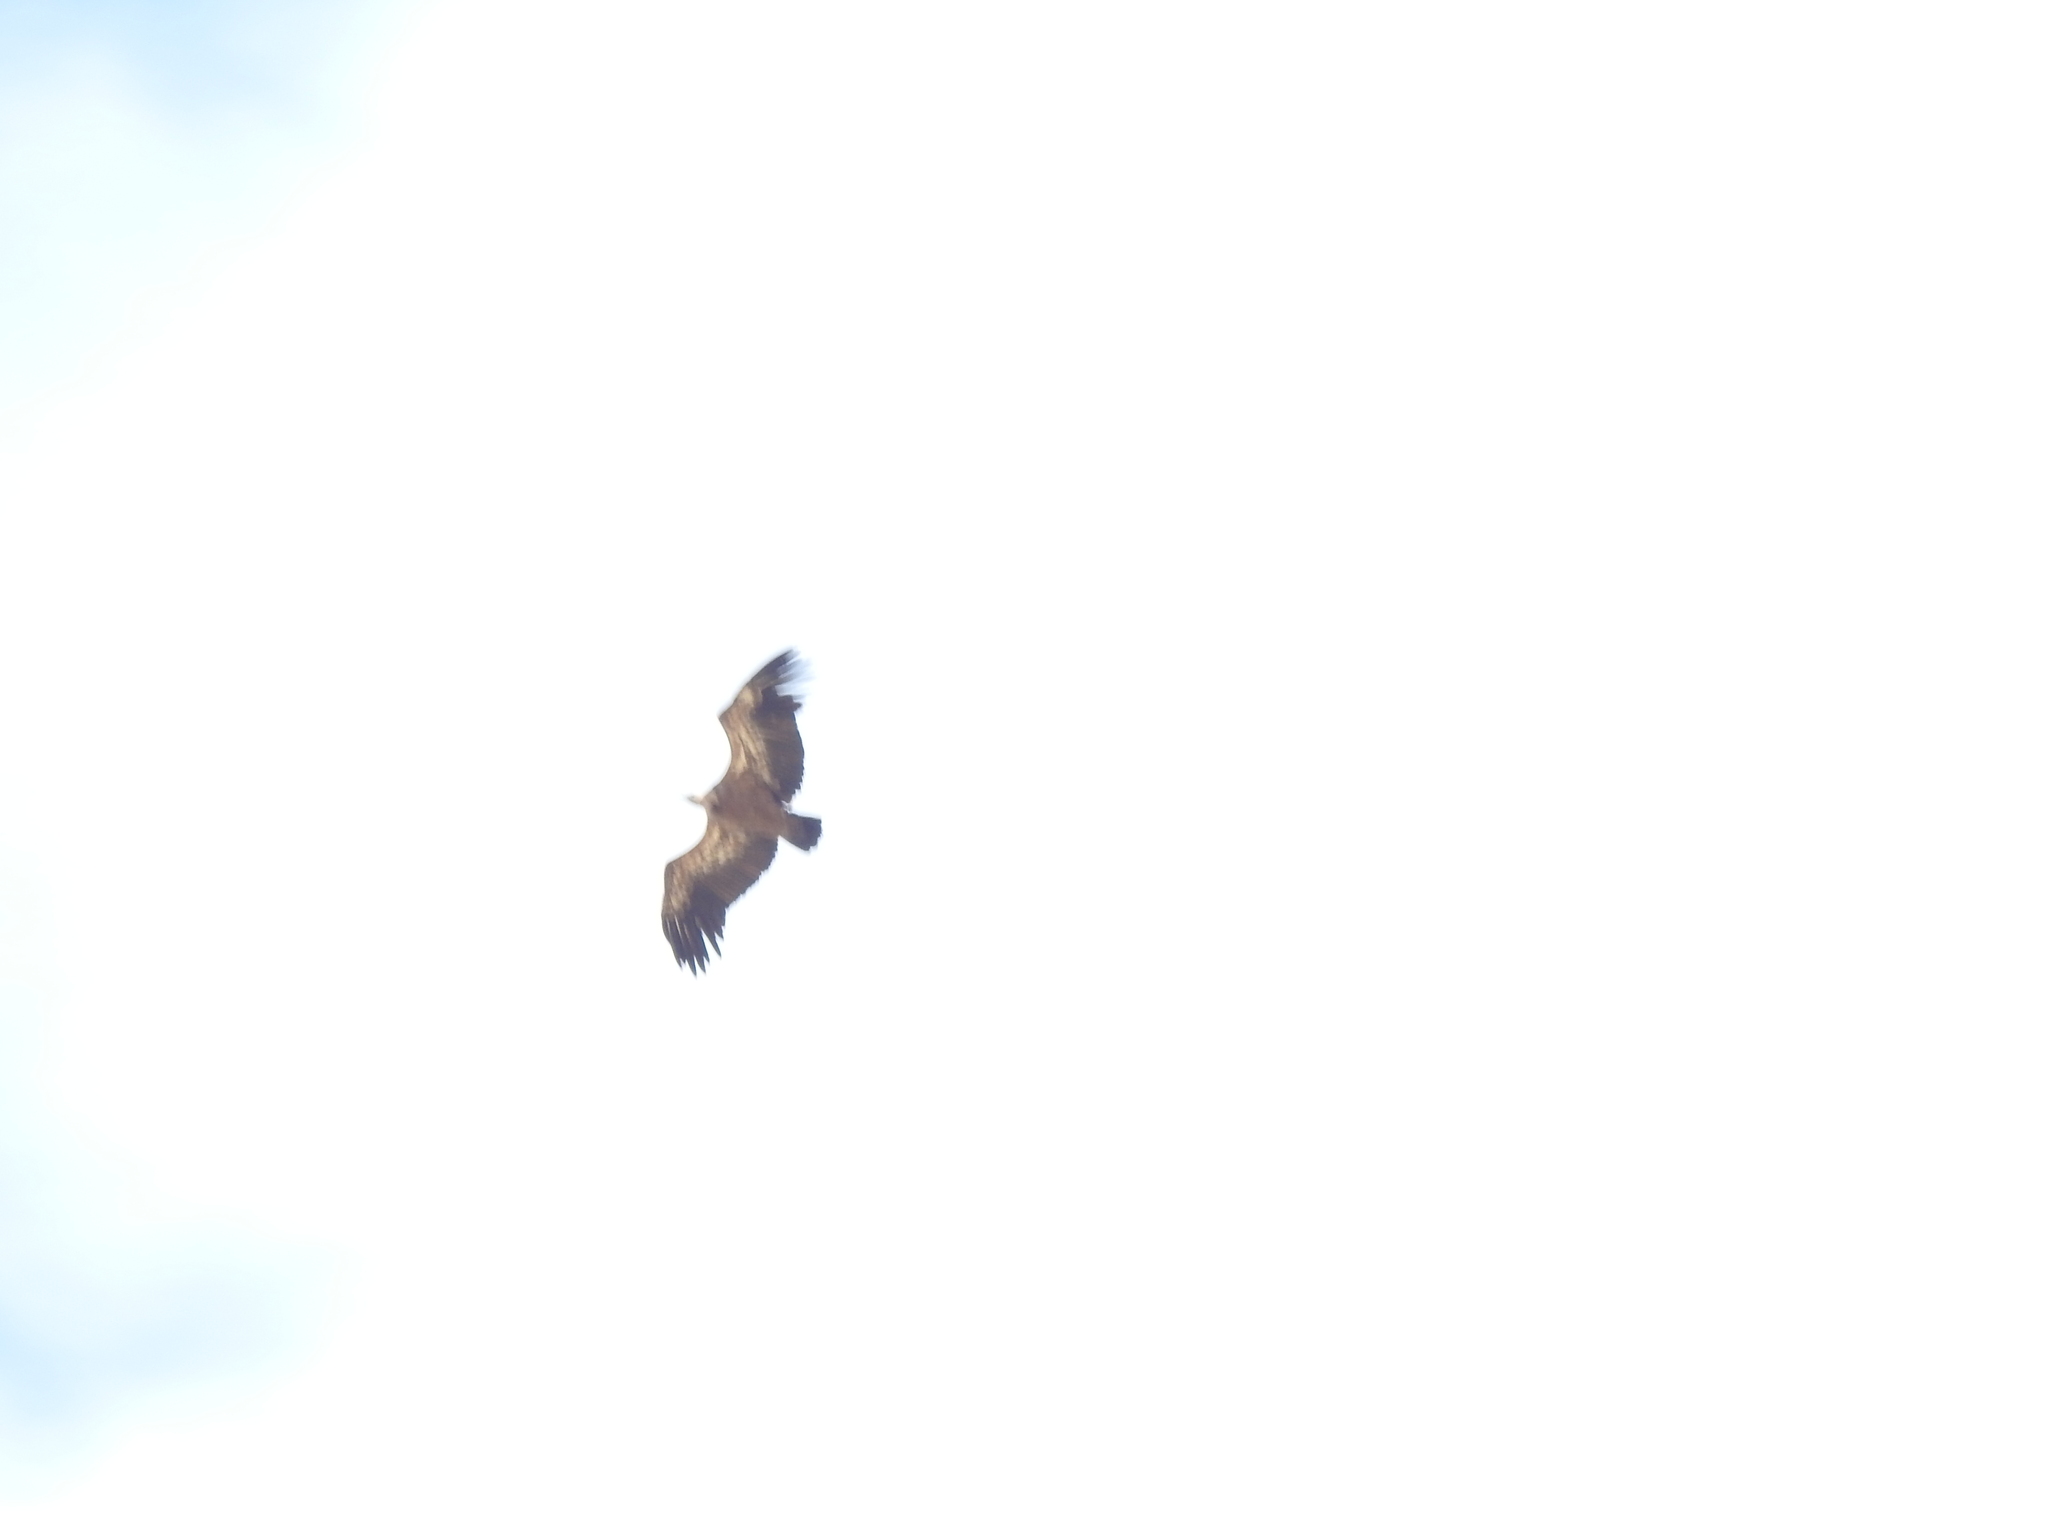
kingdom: Animalia
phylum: Chordata
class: Aves
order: Accipitriformes
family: Accipitridae
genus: Gyps
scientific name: Gyps fulvus
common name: Griffon vulture
